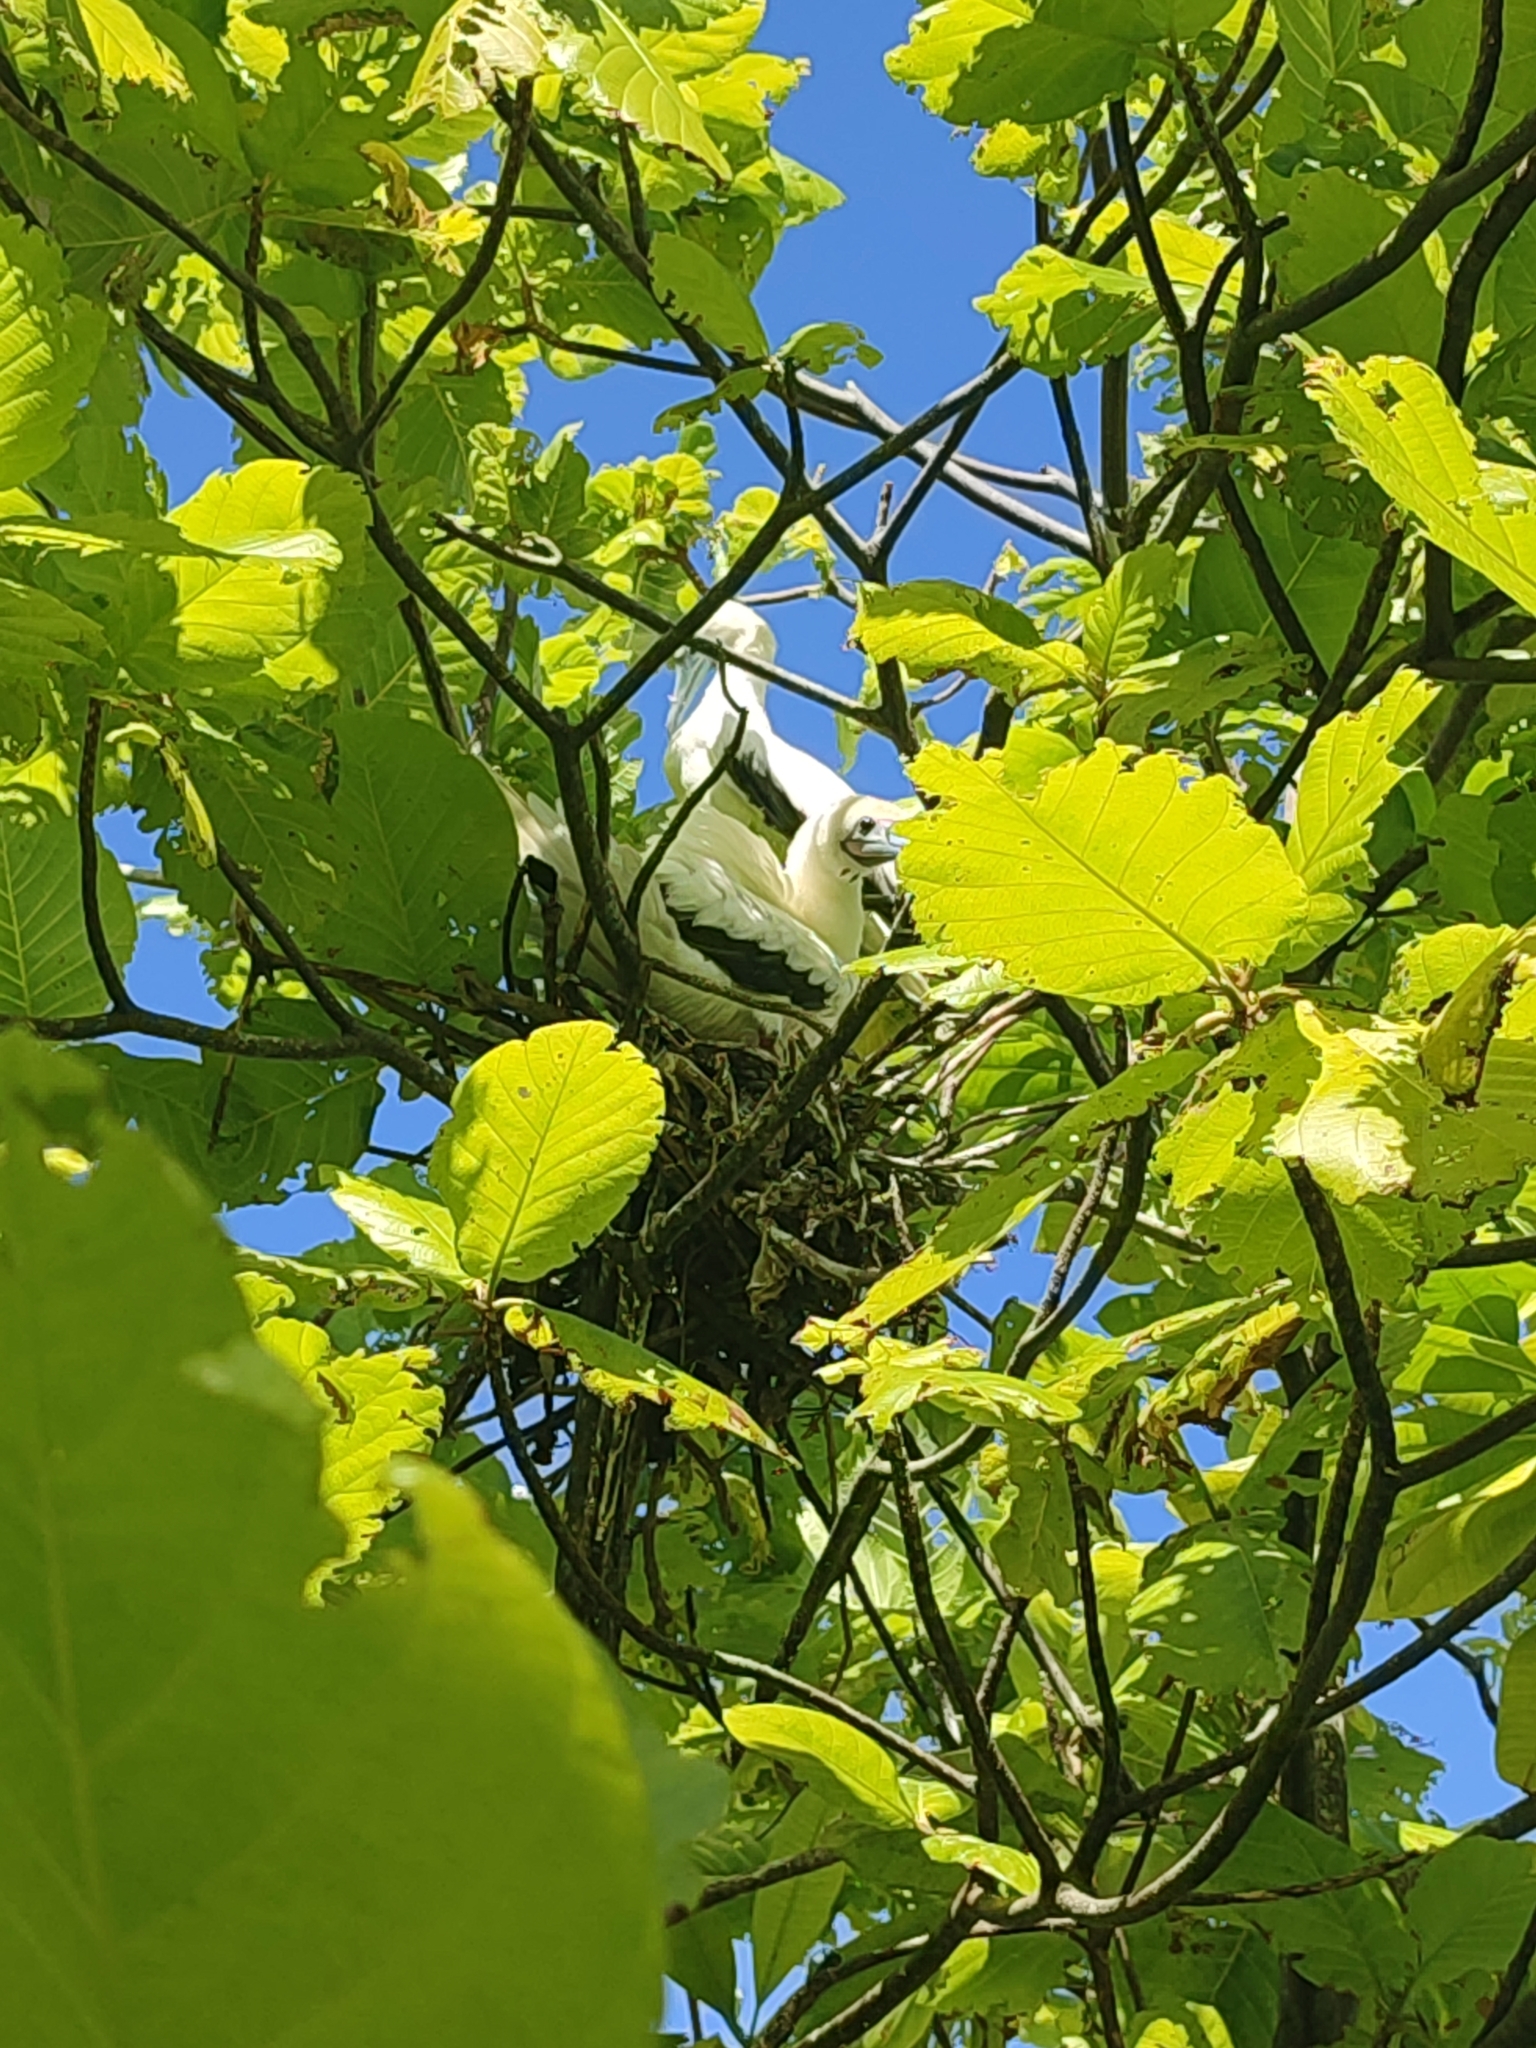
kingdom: Animalia
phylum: Chordata
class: Aves
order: Suliformes
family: Sulidae
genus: Sula
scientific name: Sula sula
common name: Red-footed booby
